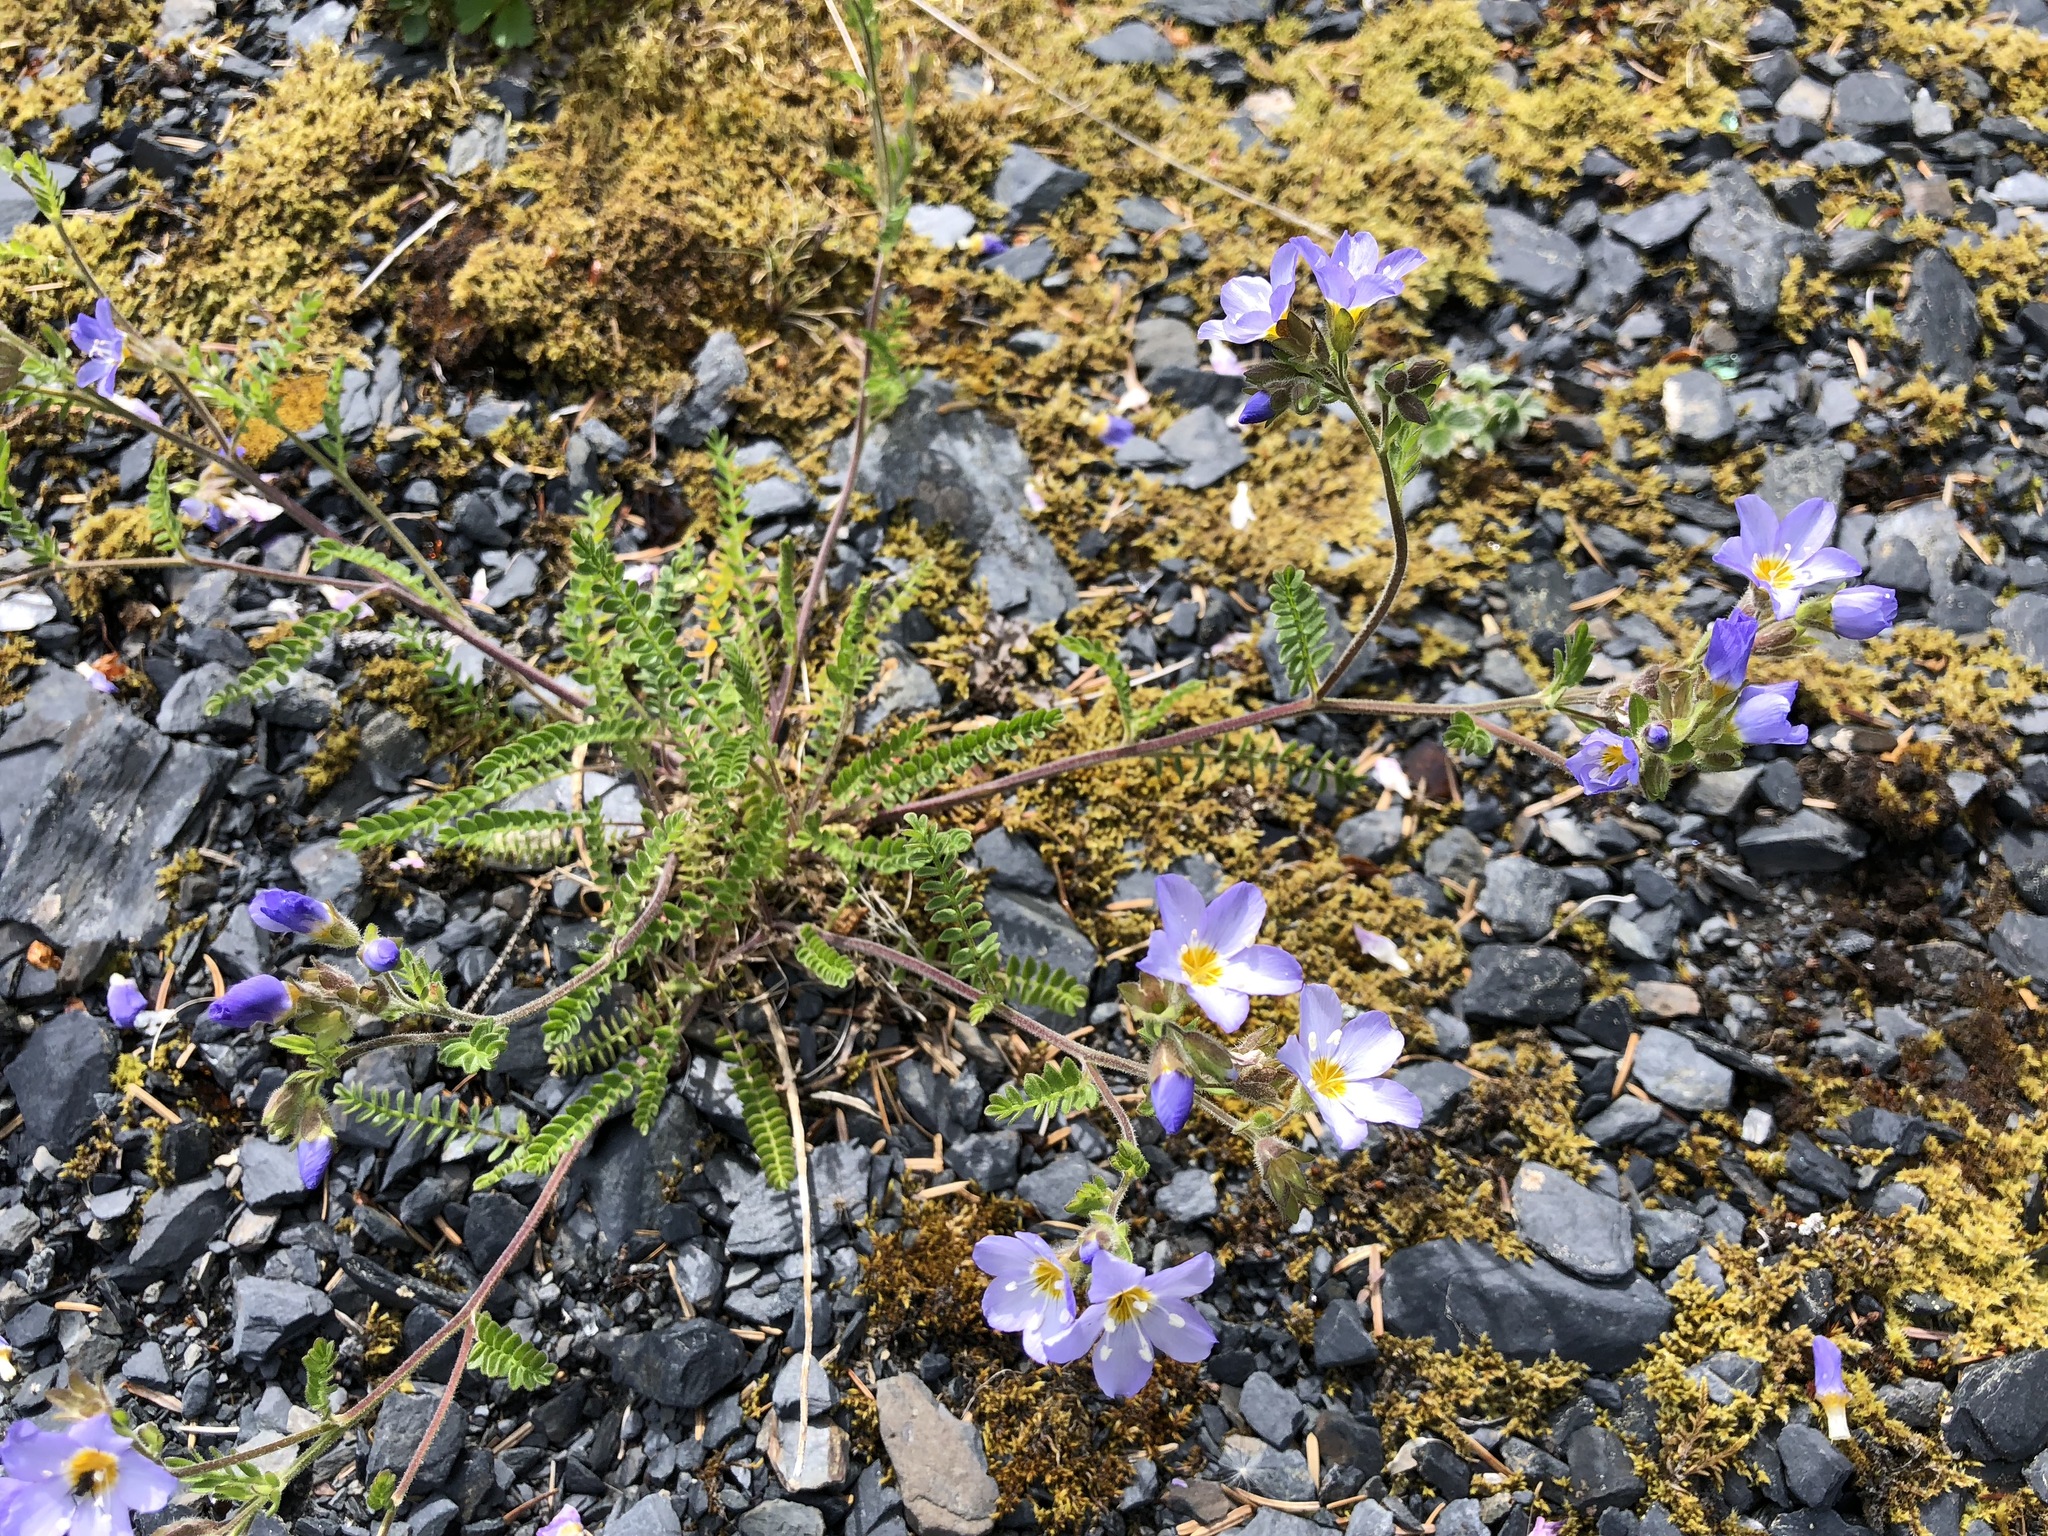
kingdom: Plantae
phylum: Tracheophyta
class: Magnoliopsida
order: Ericales
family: Polemoniaceae
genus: Polemonium
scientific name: Polemonium pulcherrimum
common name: Short jacob's-ladder
